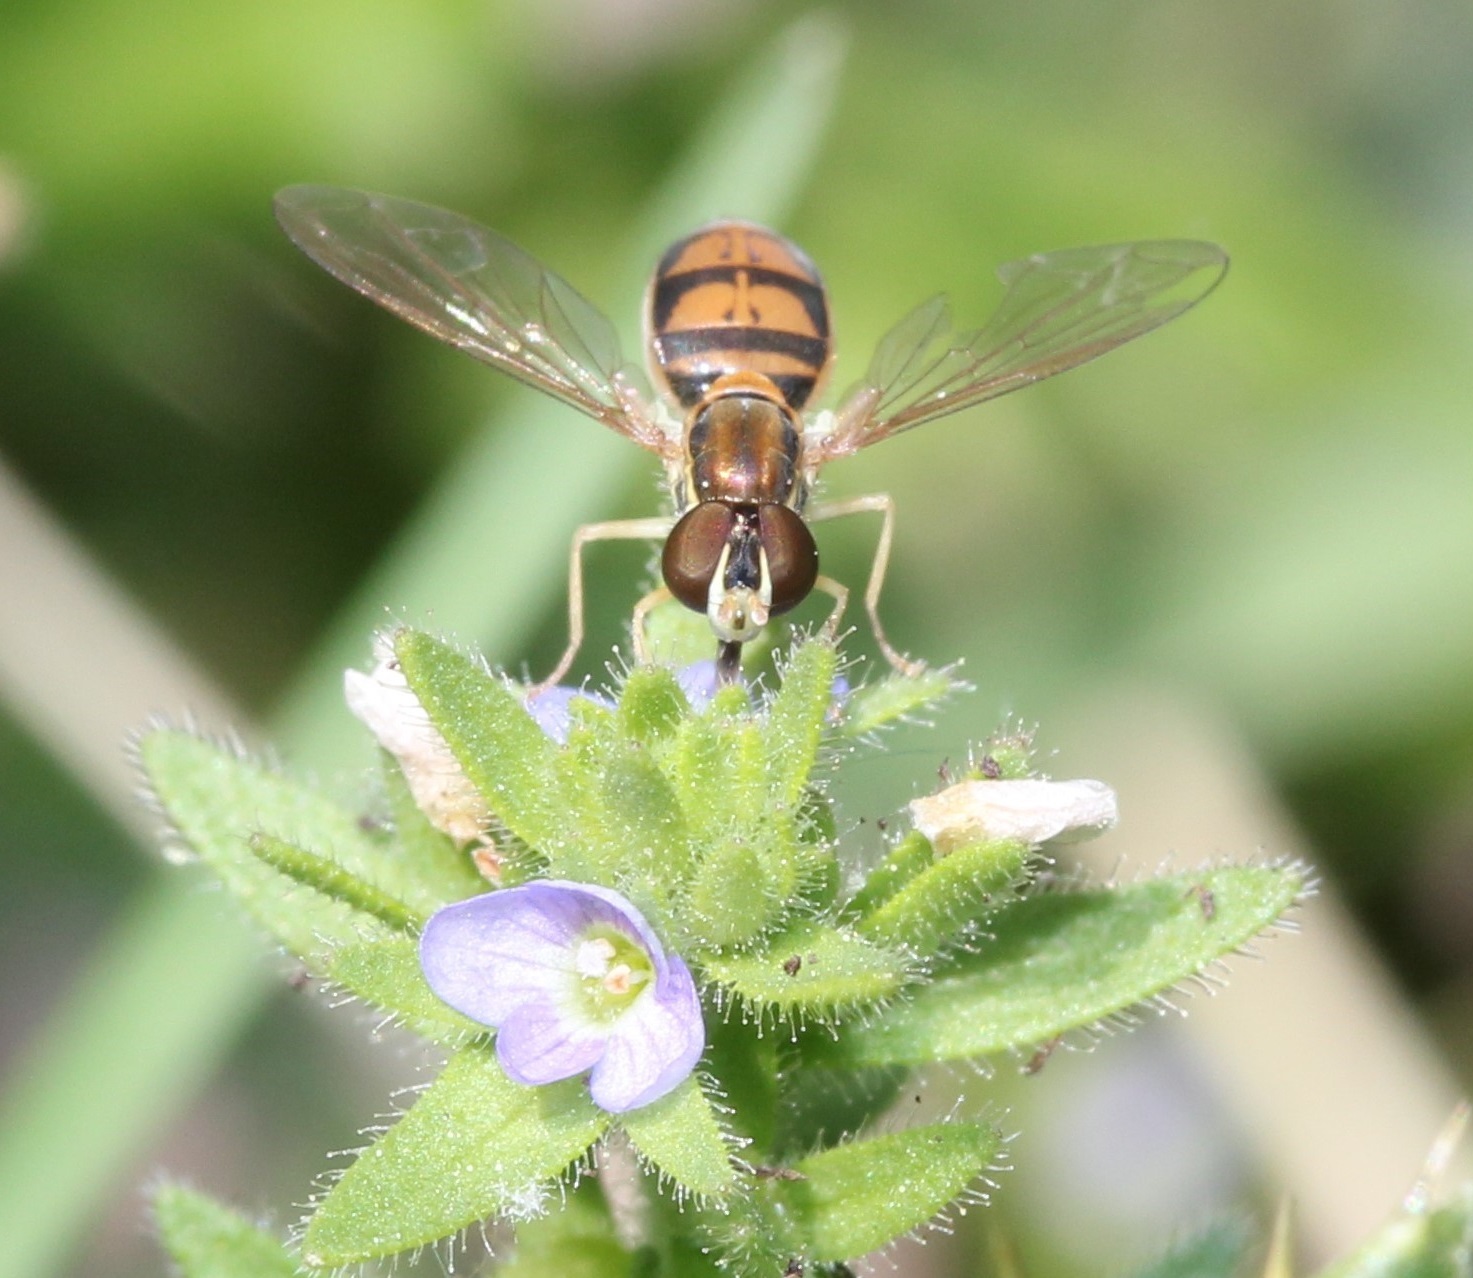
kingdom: Animalia
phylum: Arthropoda
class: Insecta
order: Diptera
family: Syrphidae
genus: Toxomerus
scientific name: Toxomerus marginatus
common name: Syrphid fly
